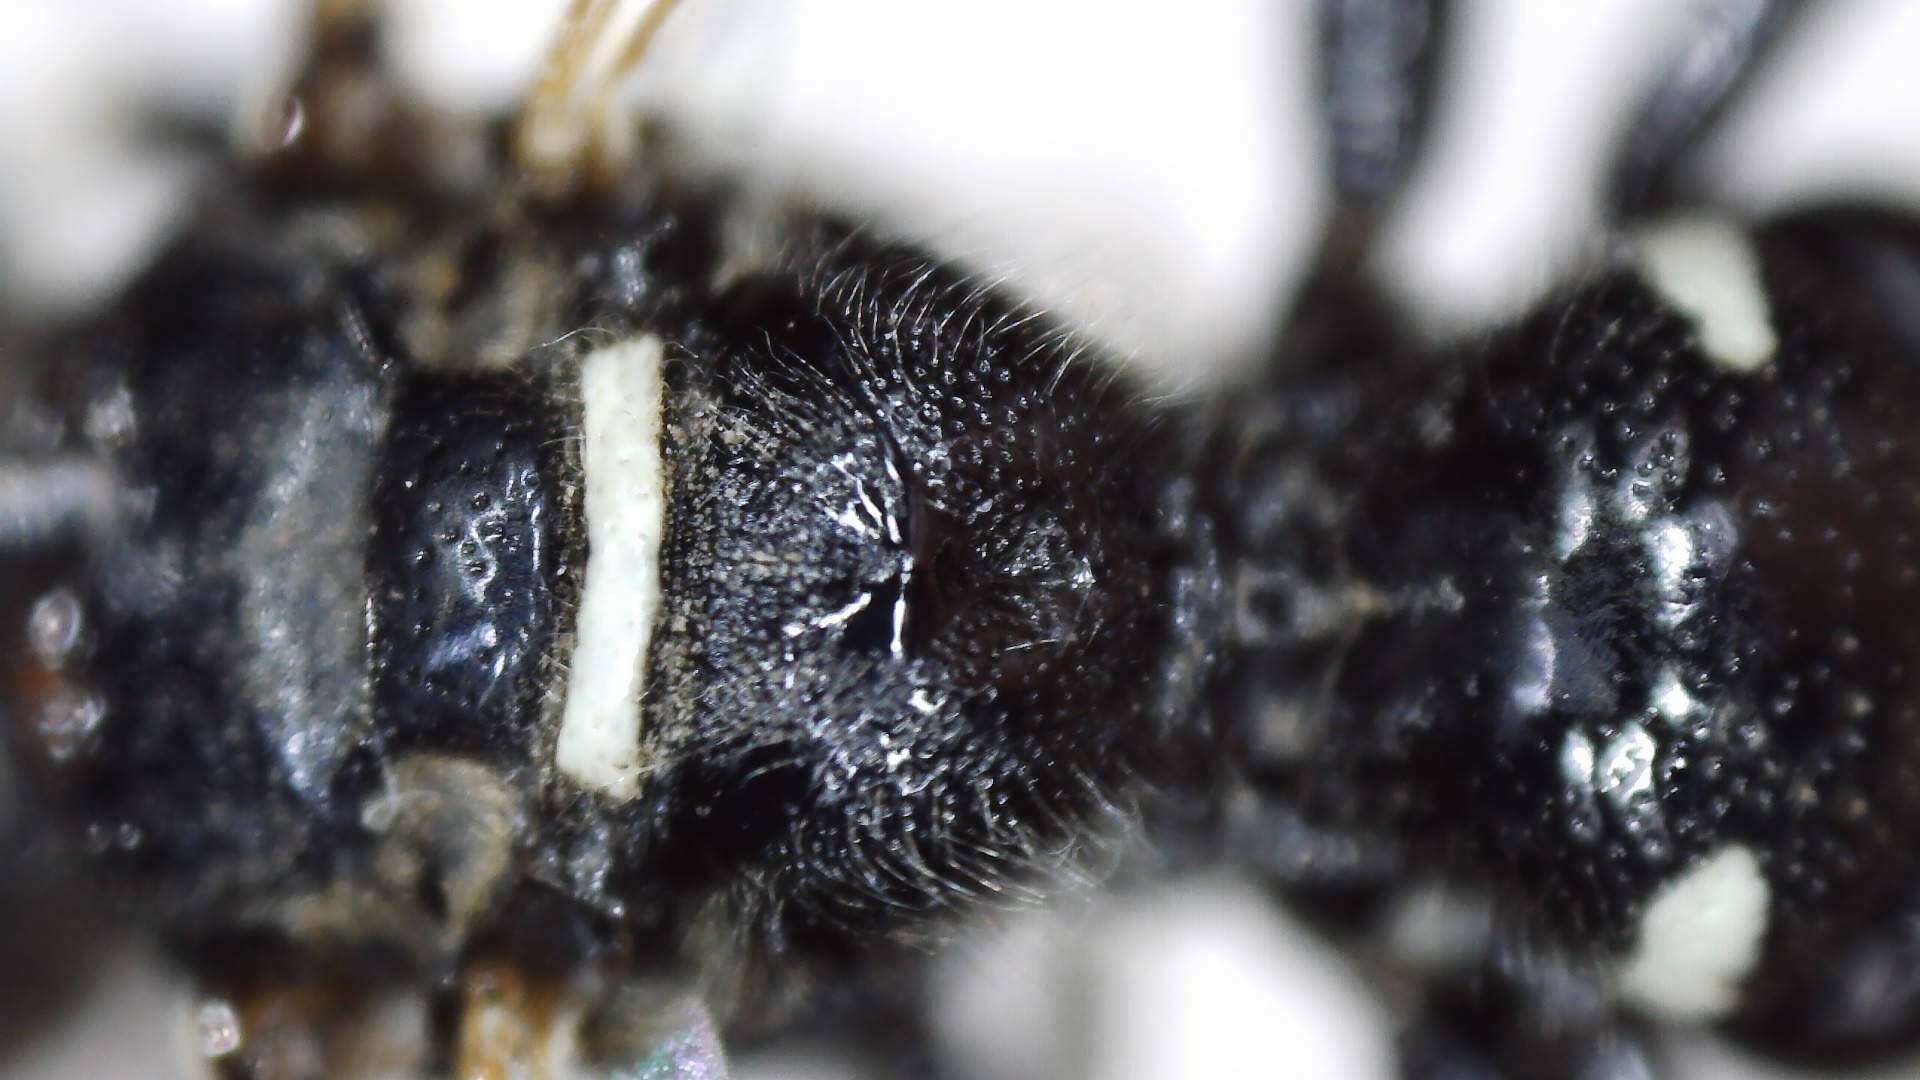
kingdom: Animalia
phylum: Arthropoda
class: Insecta
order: Hymenoptera
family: Crabronidae
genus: Philanthus
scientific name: Philanthus politus
